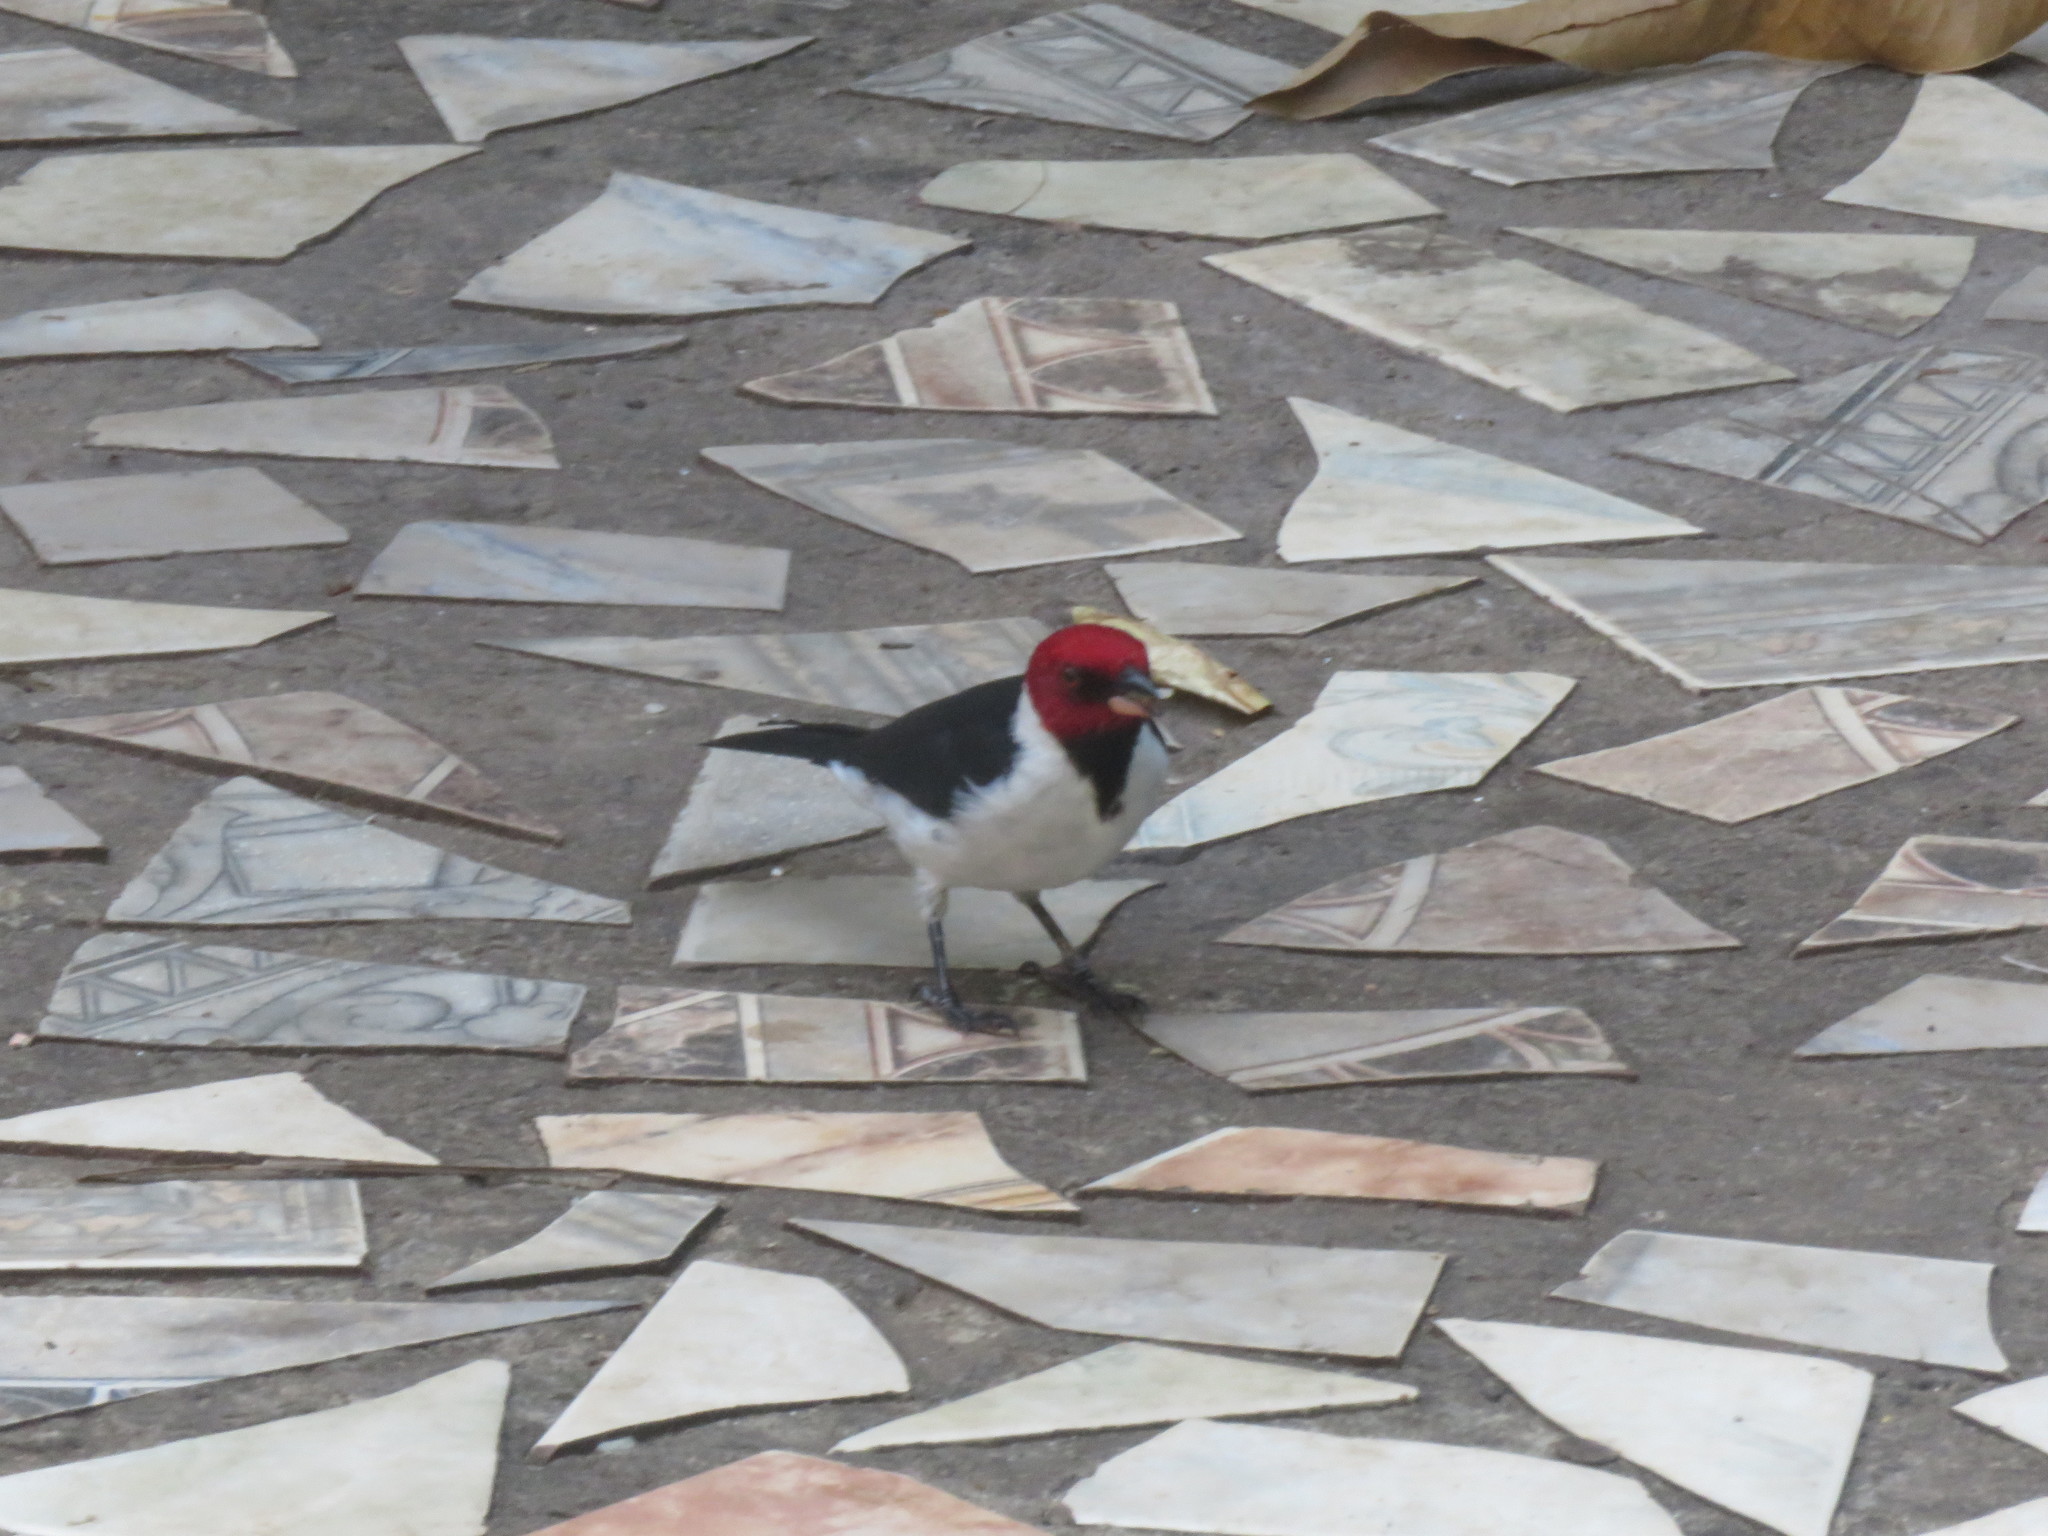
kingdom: Animalia
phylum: Chordata
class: Aves
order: Passeriformes
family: Thraupidae
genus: Paroaria
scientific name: Paroaria gularis
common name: Red-capped cardinal
